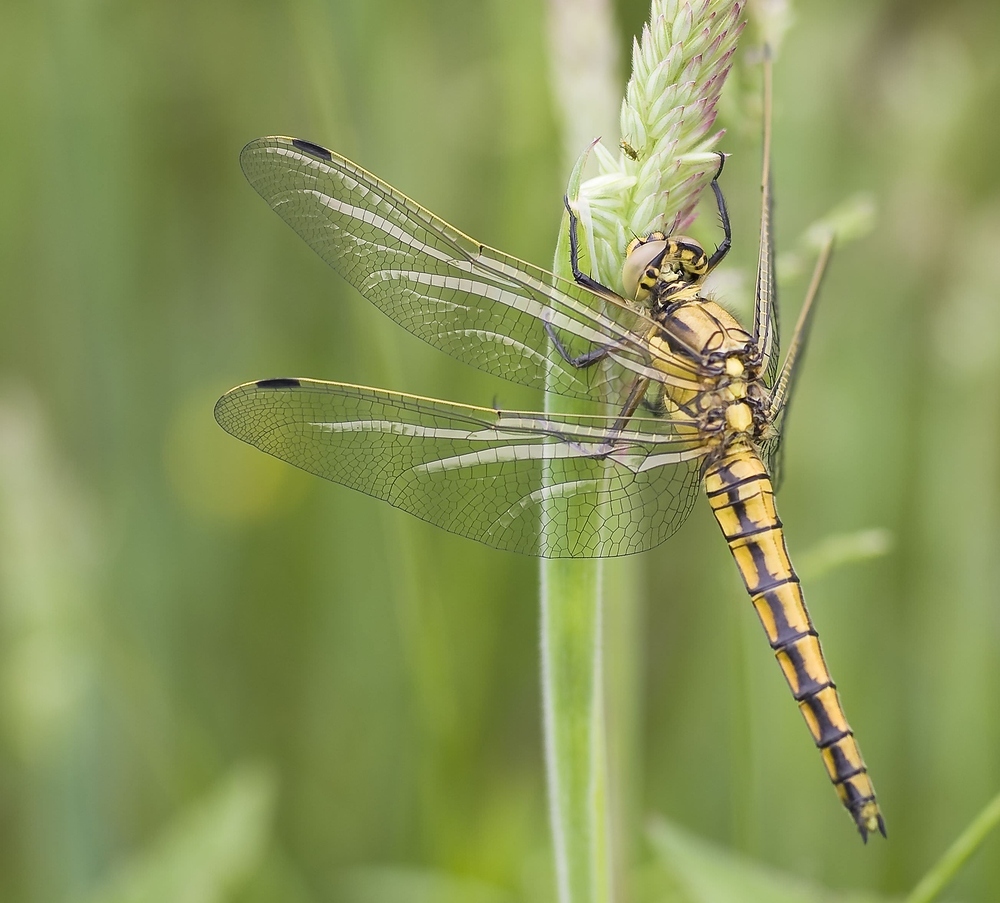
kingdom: Animalia
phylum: Arthropoda
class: Insecta
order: Odonata
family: Libellulidae
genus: Orthetrum
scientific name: Orthetrum cancellatum
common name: Black-tailed skimmer
